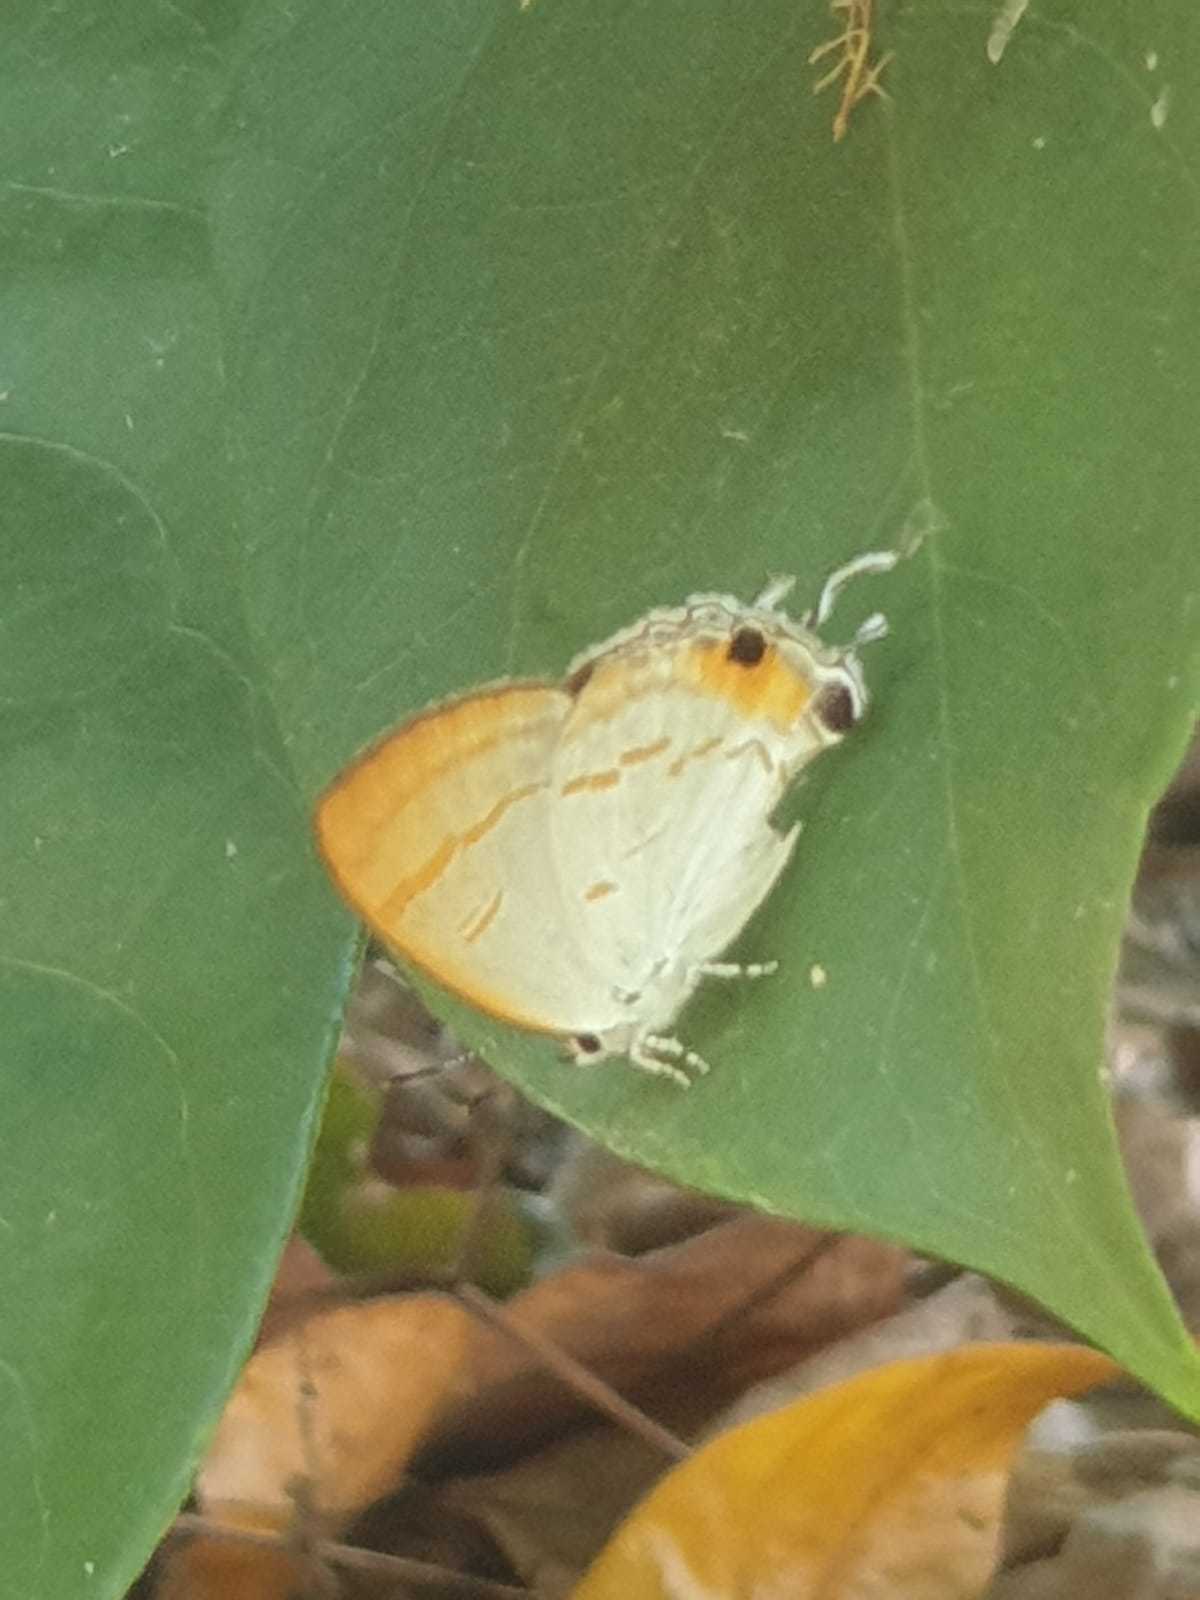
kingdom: Animalia
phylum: Arthropoda
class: Insecta
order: Lepidoptera
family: Lycaenidae
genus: Hypolycaena
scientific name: Hypolycaena thecloides
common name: Dark tit
